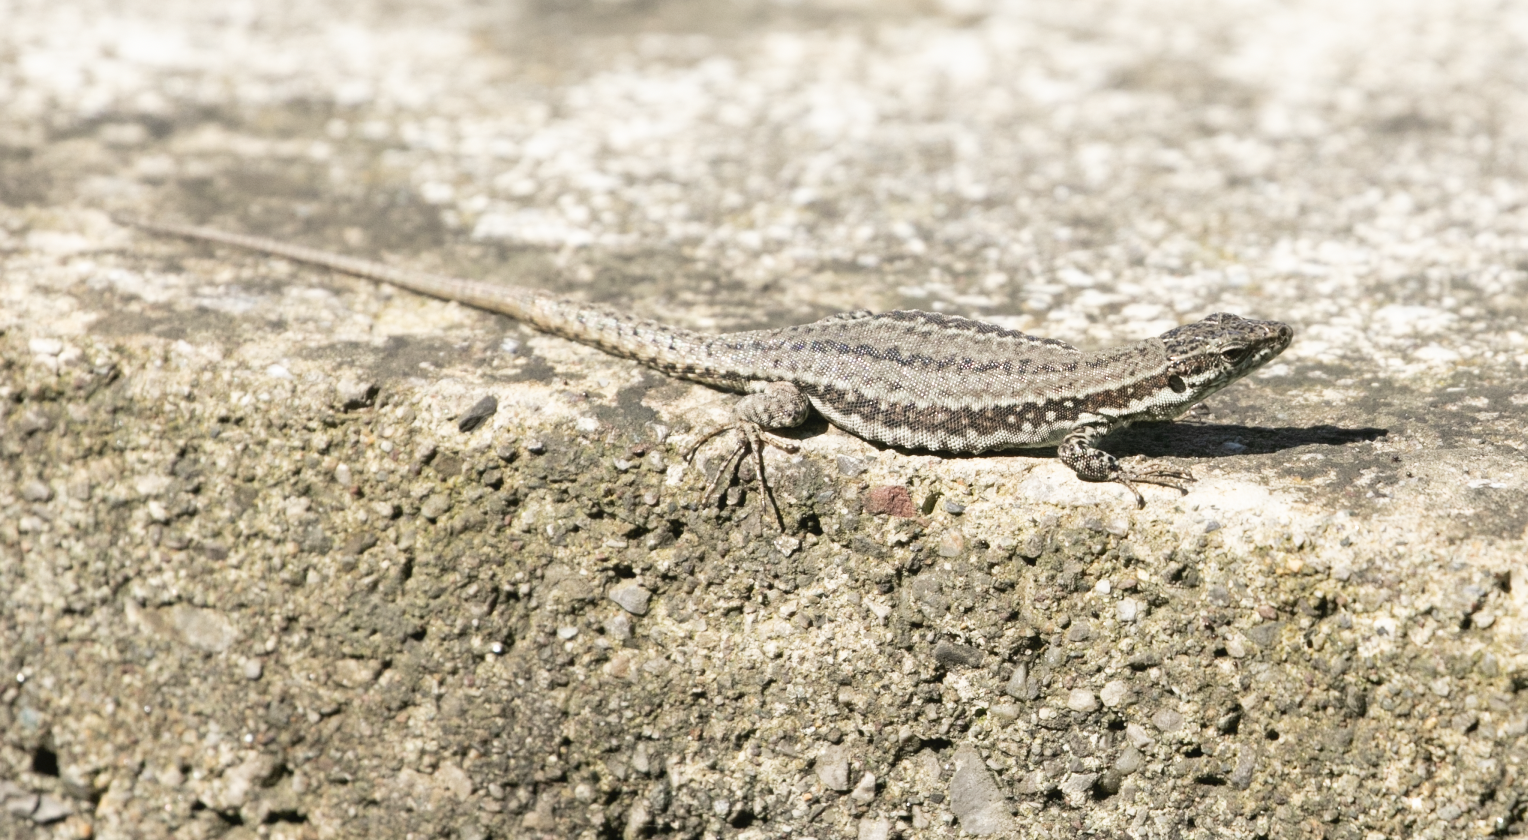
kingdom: Animalia
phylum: Chordata
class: Squamata
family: Lacertidae
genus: Podarcis
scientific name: Podarcis muralis
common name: Common wall lizard
